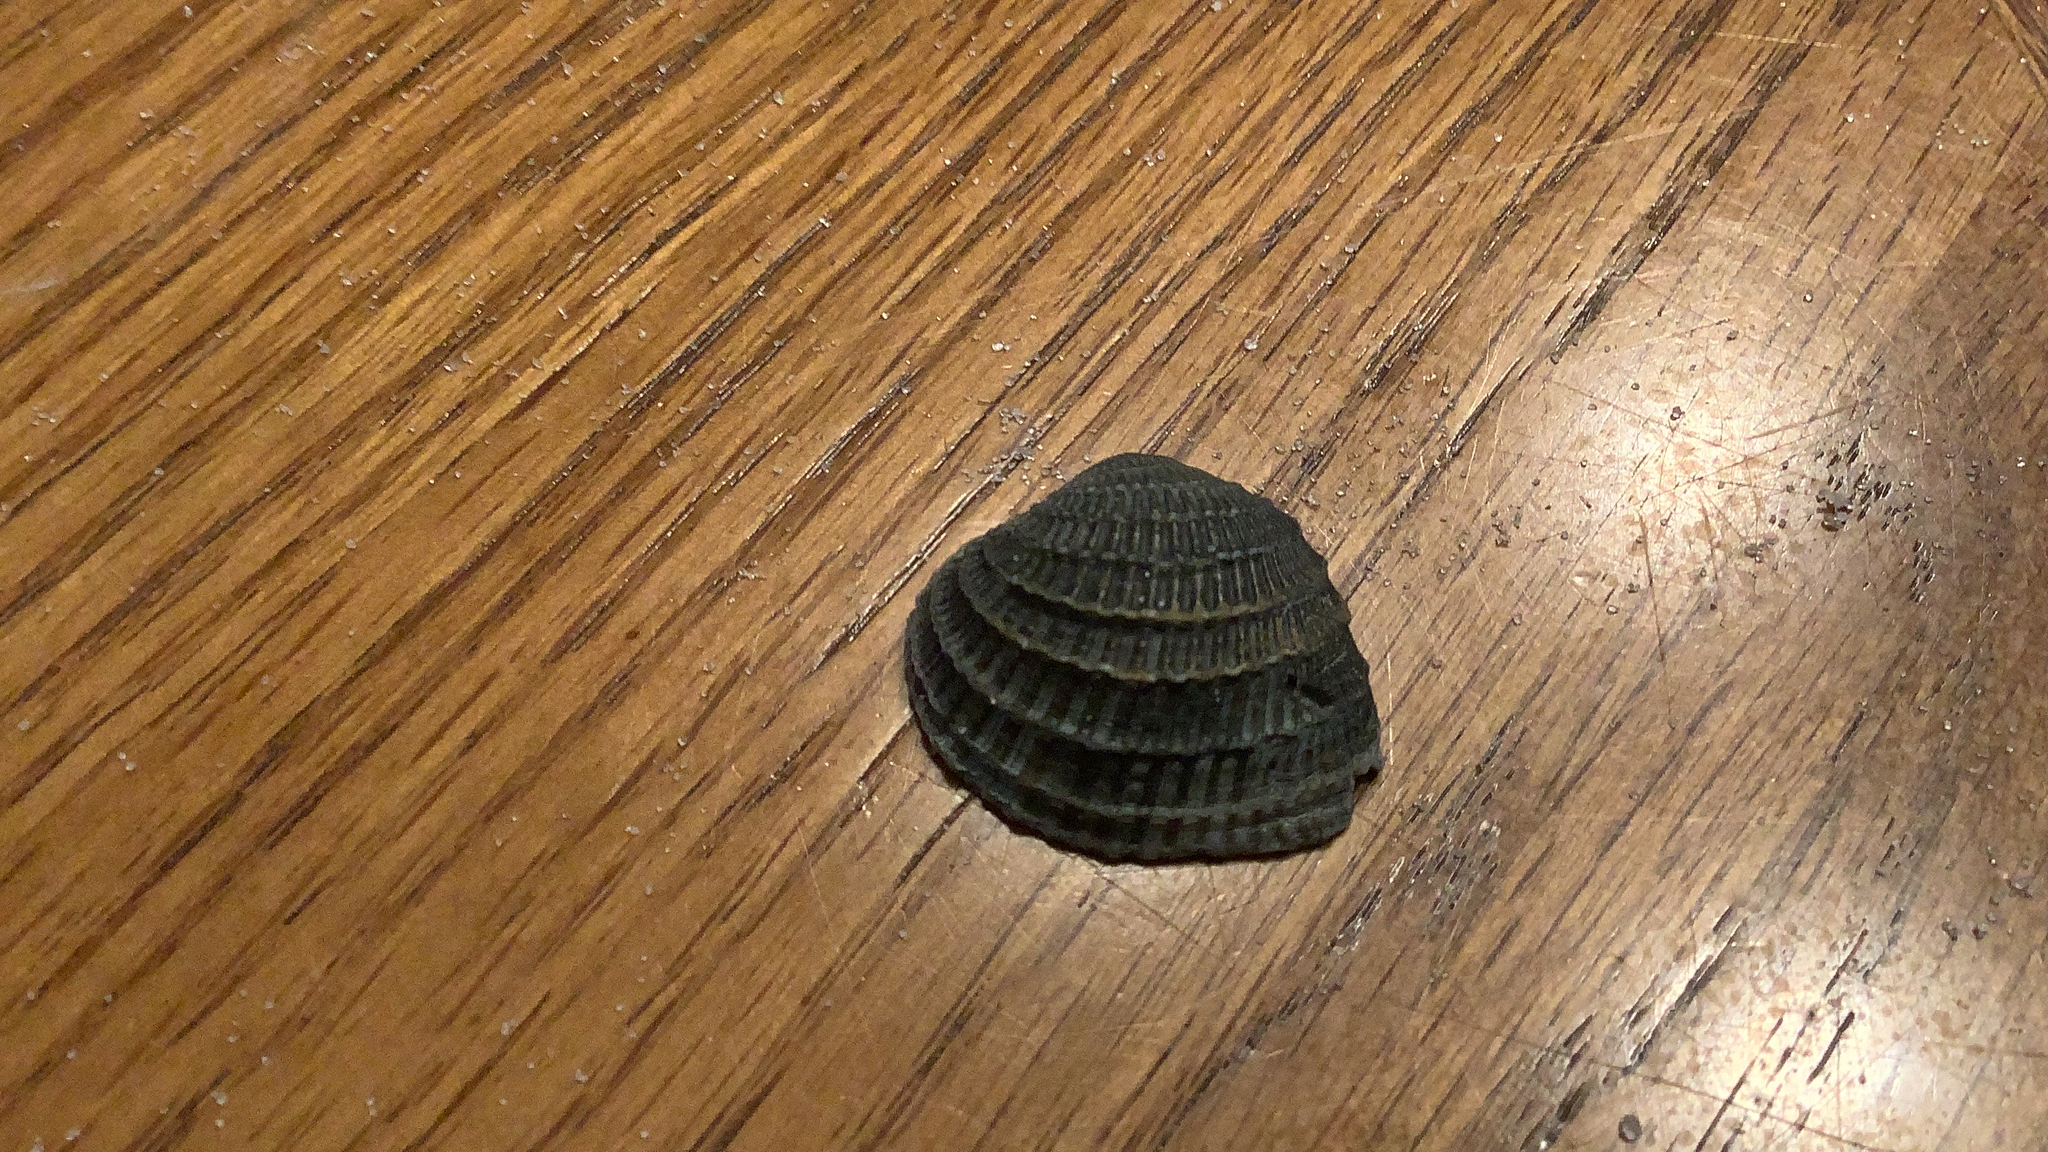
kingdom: Animalia
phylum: Mollusca
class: Bivalvia
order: Venerida
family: Veneridae
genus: Chione
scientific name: Chione elevata
